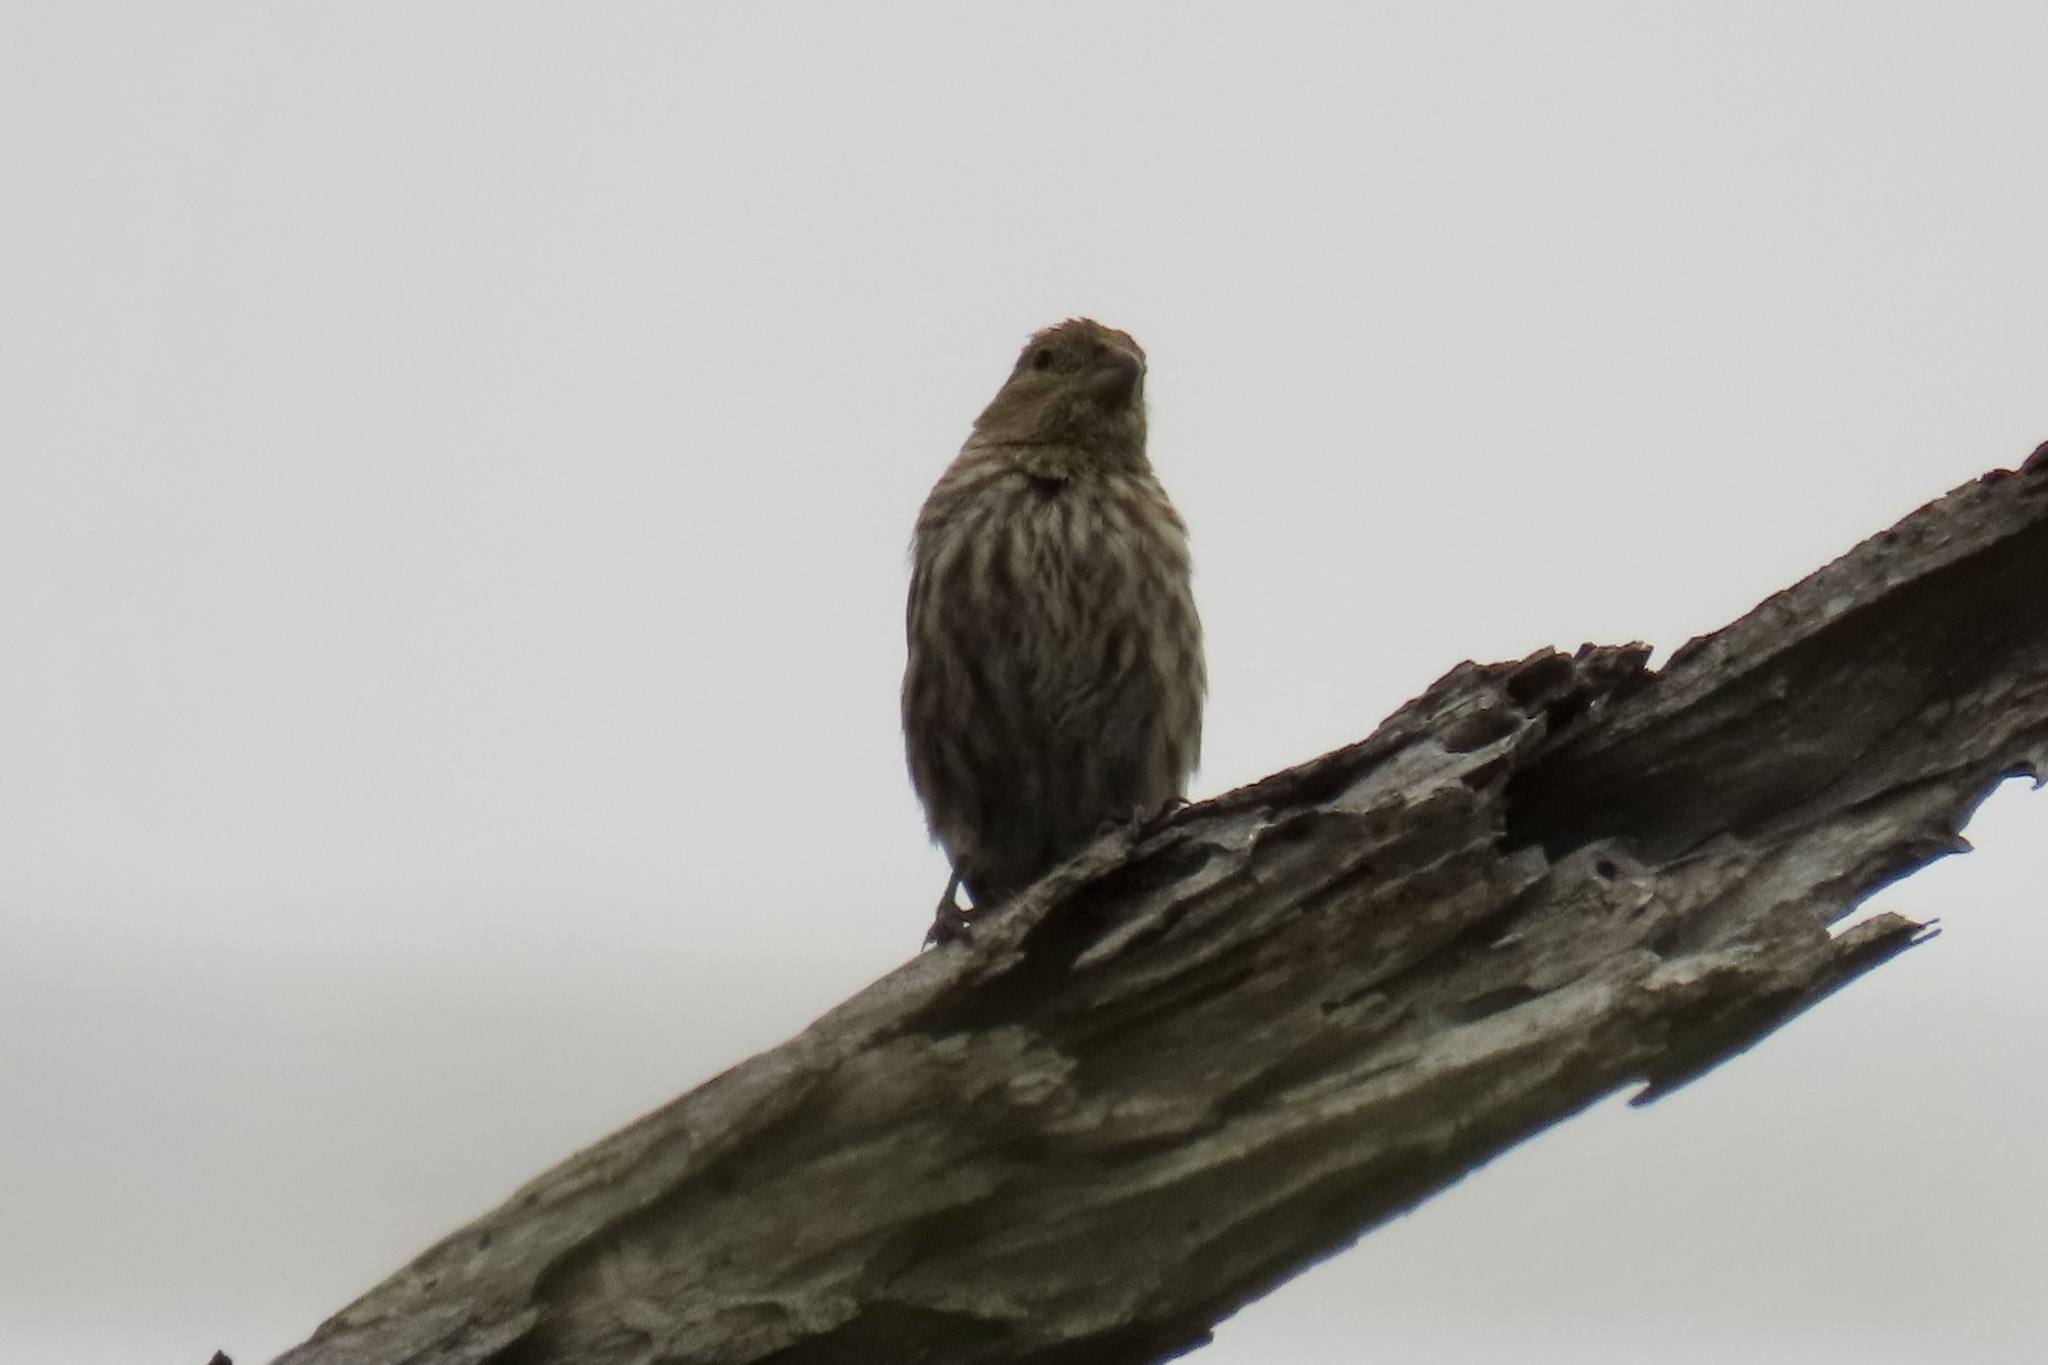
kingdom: Animalia
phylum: Chordata
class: Aves
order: Passeriformes
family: Fringillidae
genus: Haemorhous
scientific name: Haemorhous mexicanus
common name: House finch
